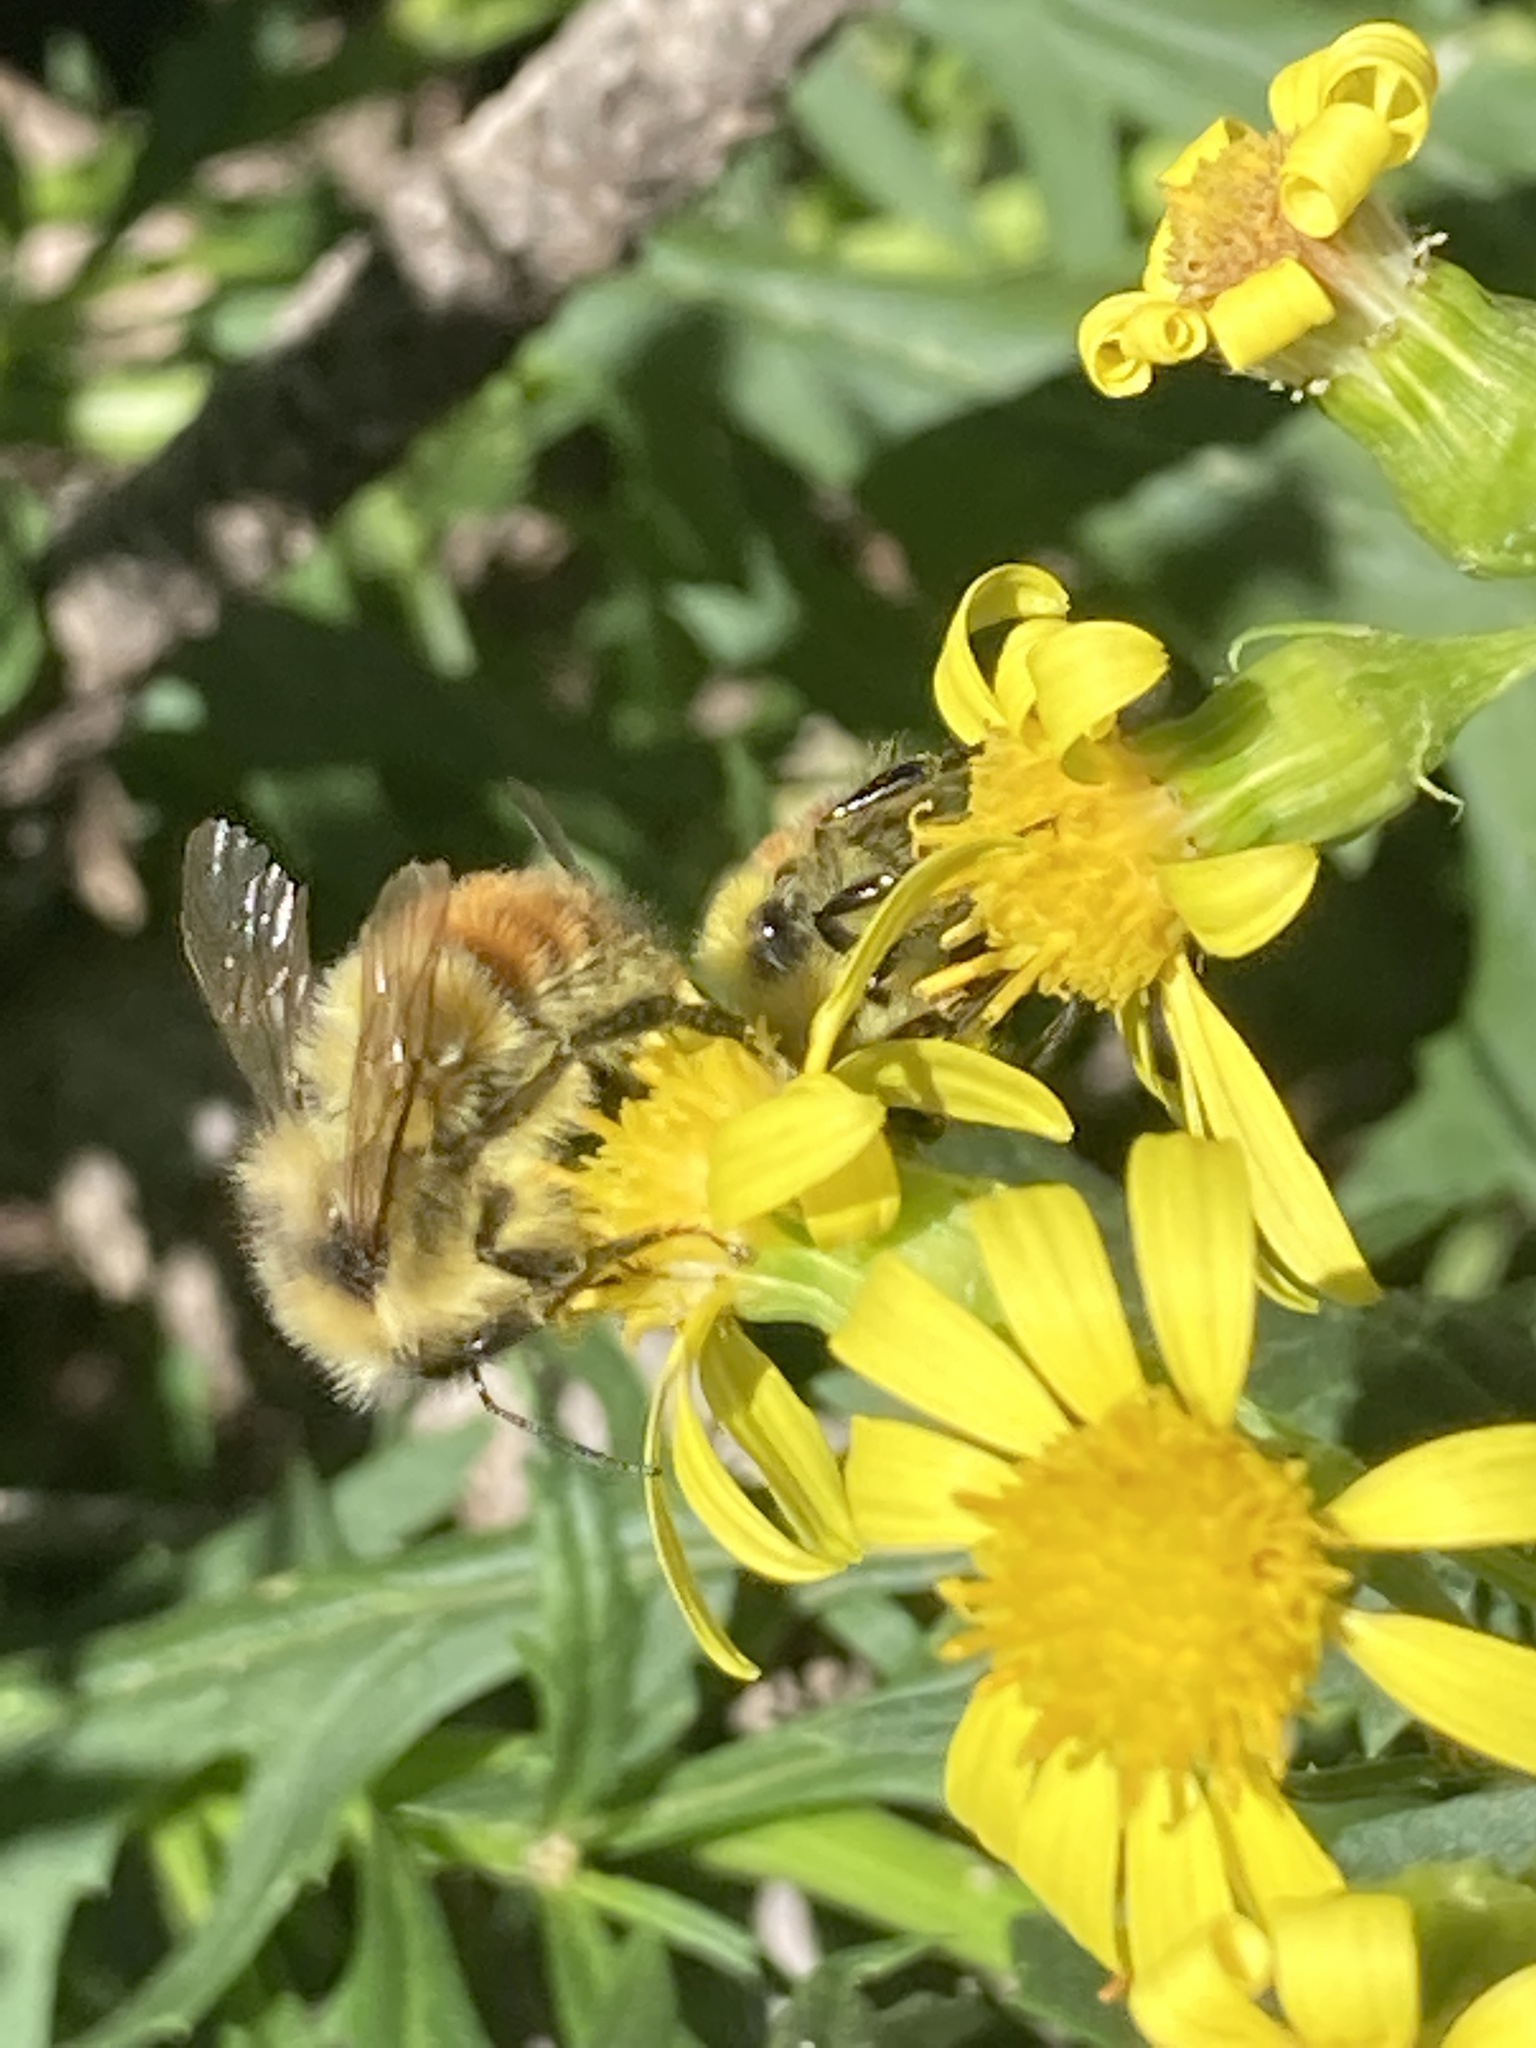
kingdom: Animalia
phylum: Arthropoda
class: Insecta
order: Hymenoptera
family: Apidae
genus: Pyrobombus
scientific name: Pyrobombus
